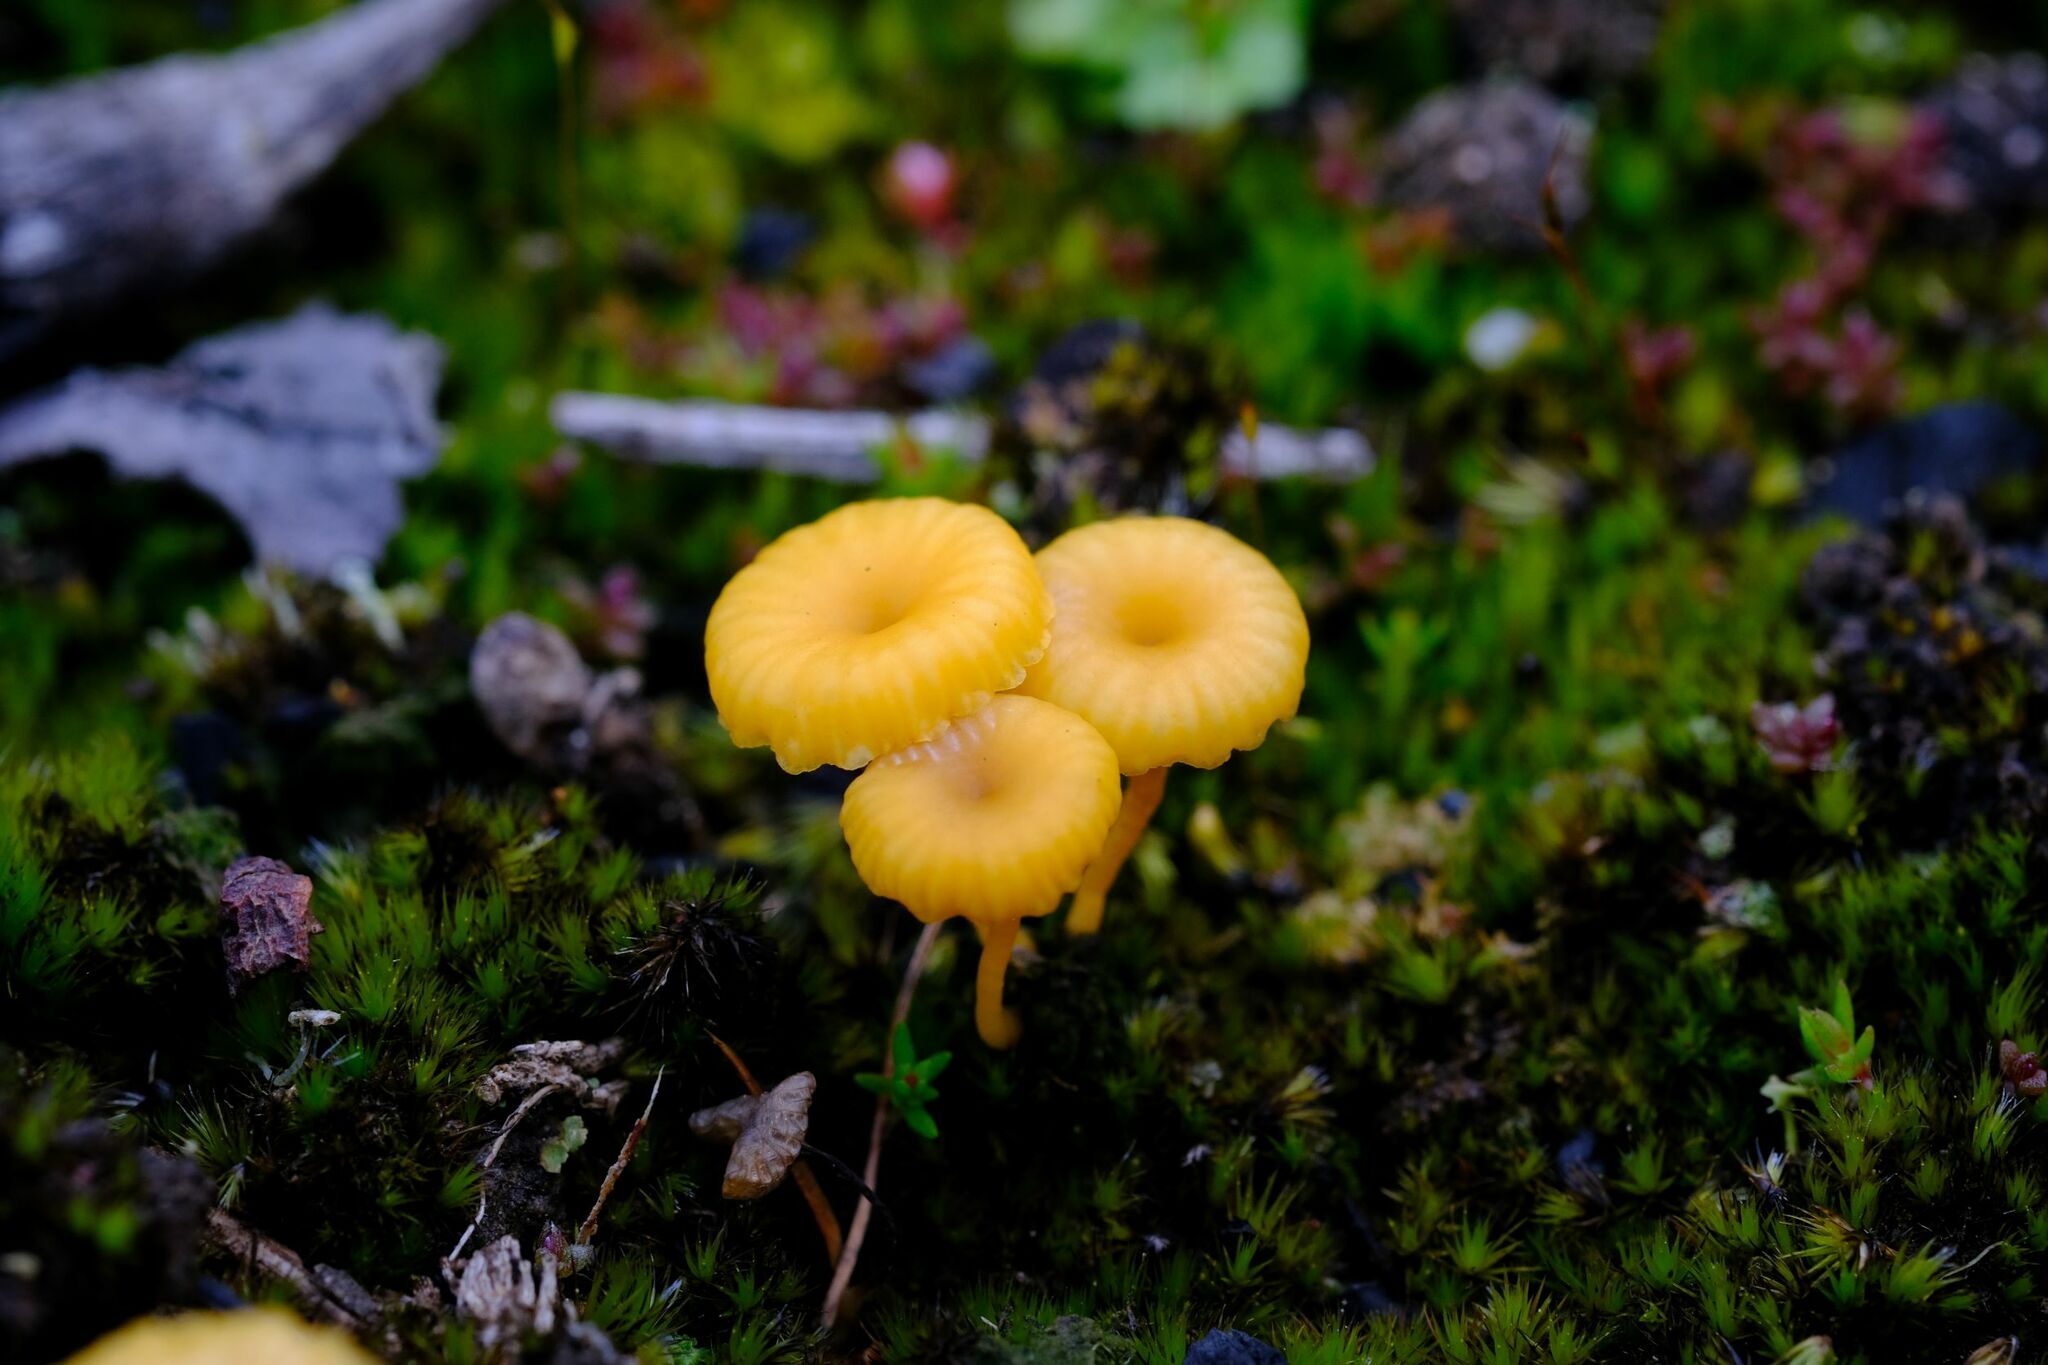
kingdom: Fungi
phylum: Basidiomycota
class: Agaricomycetes
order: Agaricales
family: Hygrophoraceae
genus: Lichenomphalia
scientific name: Lichenomphalia chromacea
